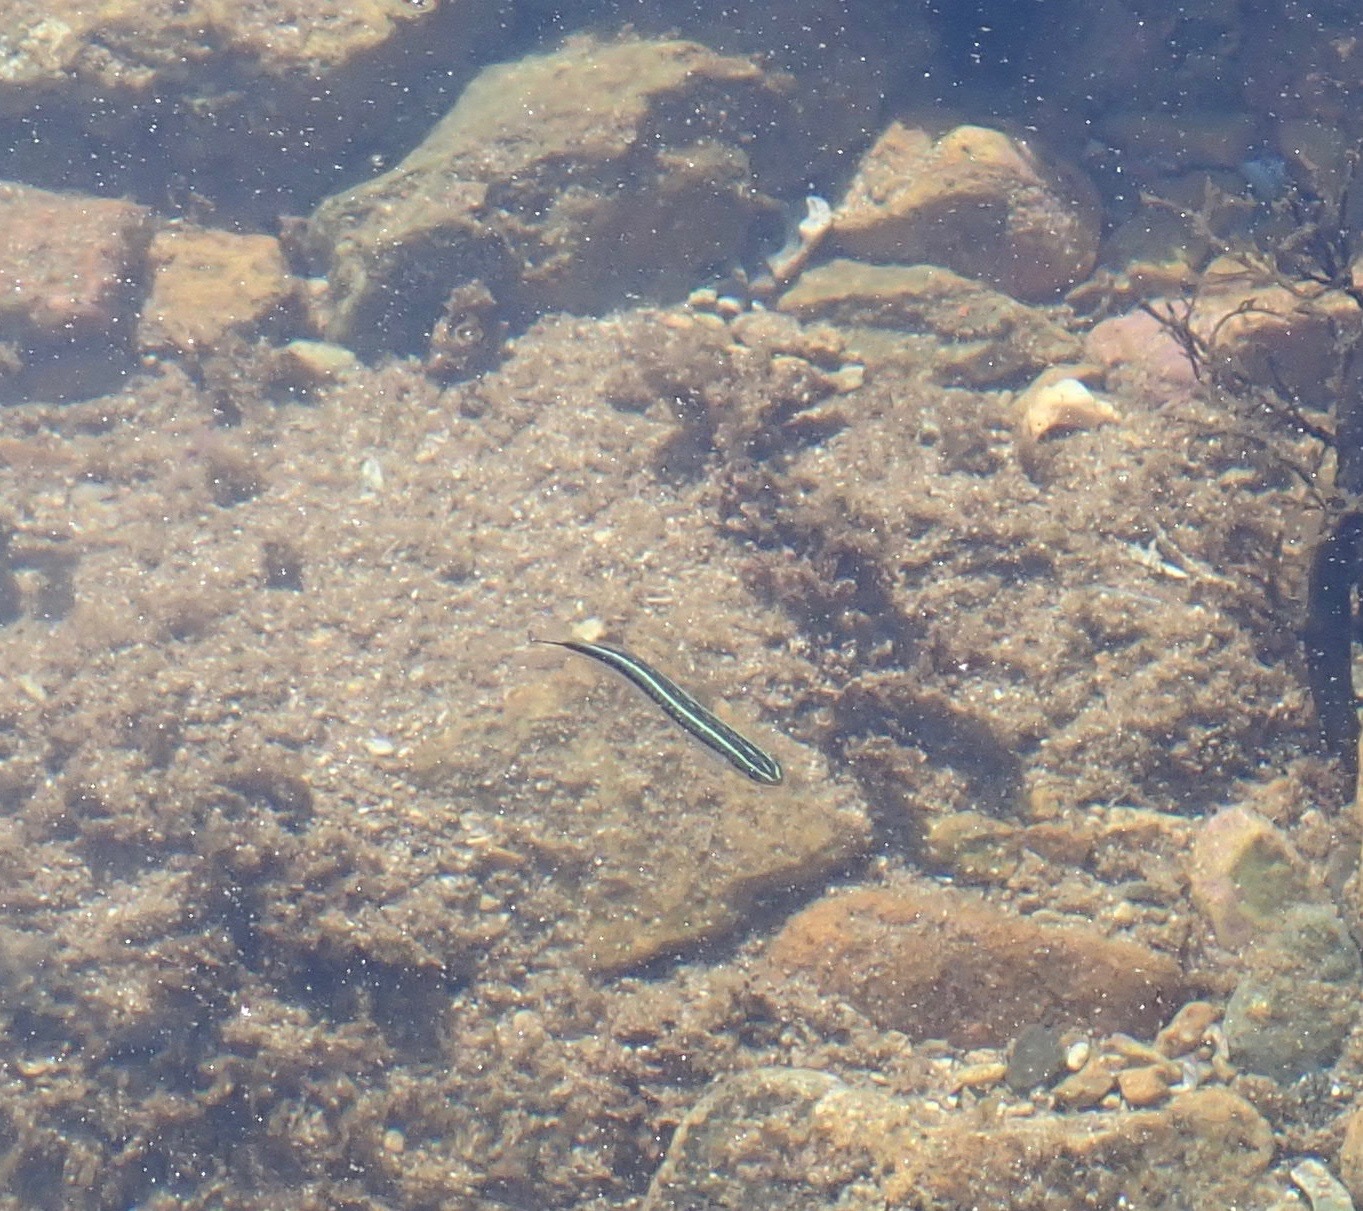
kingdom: Animalia
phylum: Chordata
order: Perciformes
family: Blenniidae
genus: Plagiotremus
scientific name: Plagiotremus tapeinosoma
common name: Hit and run blenny
